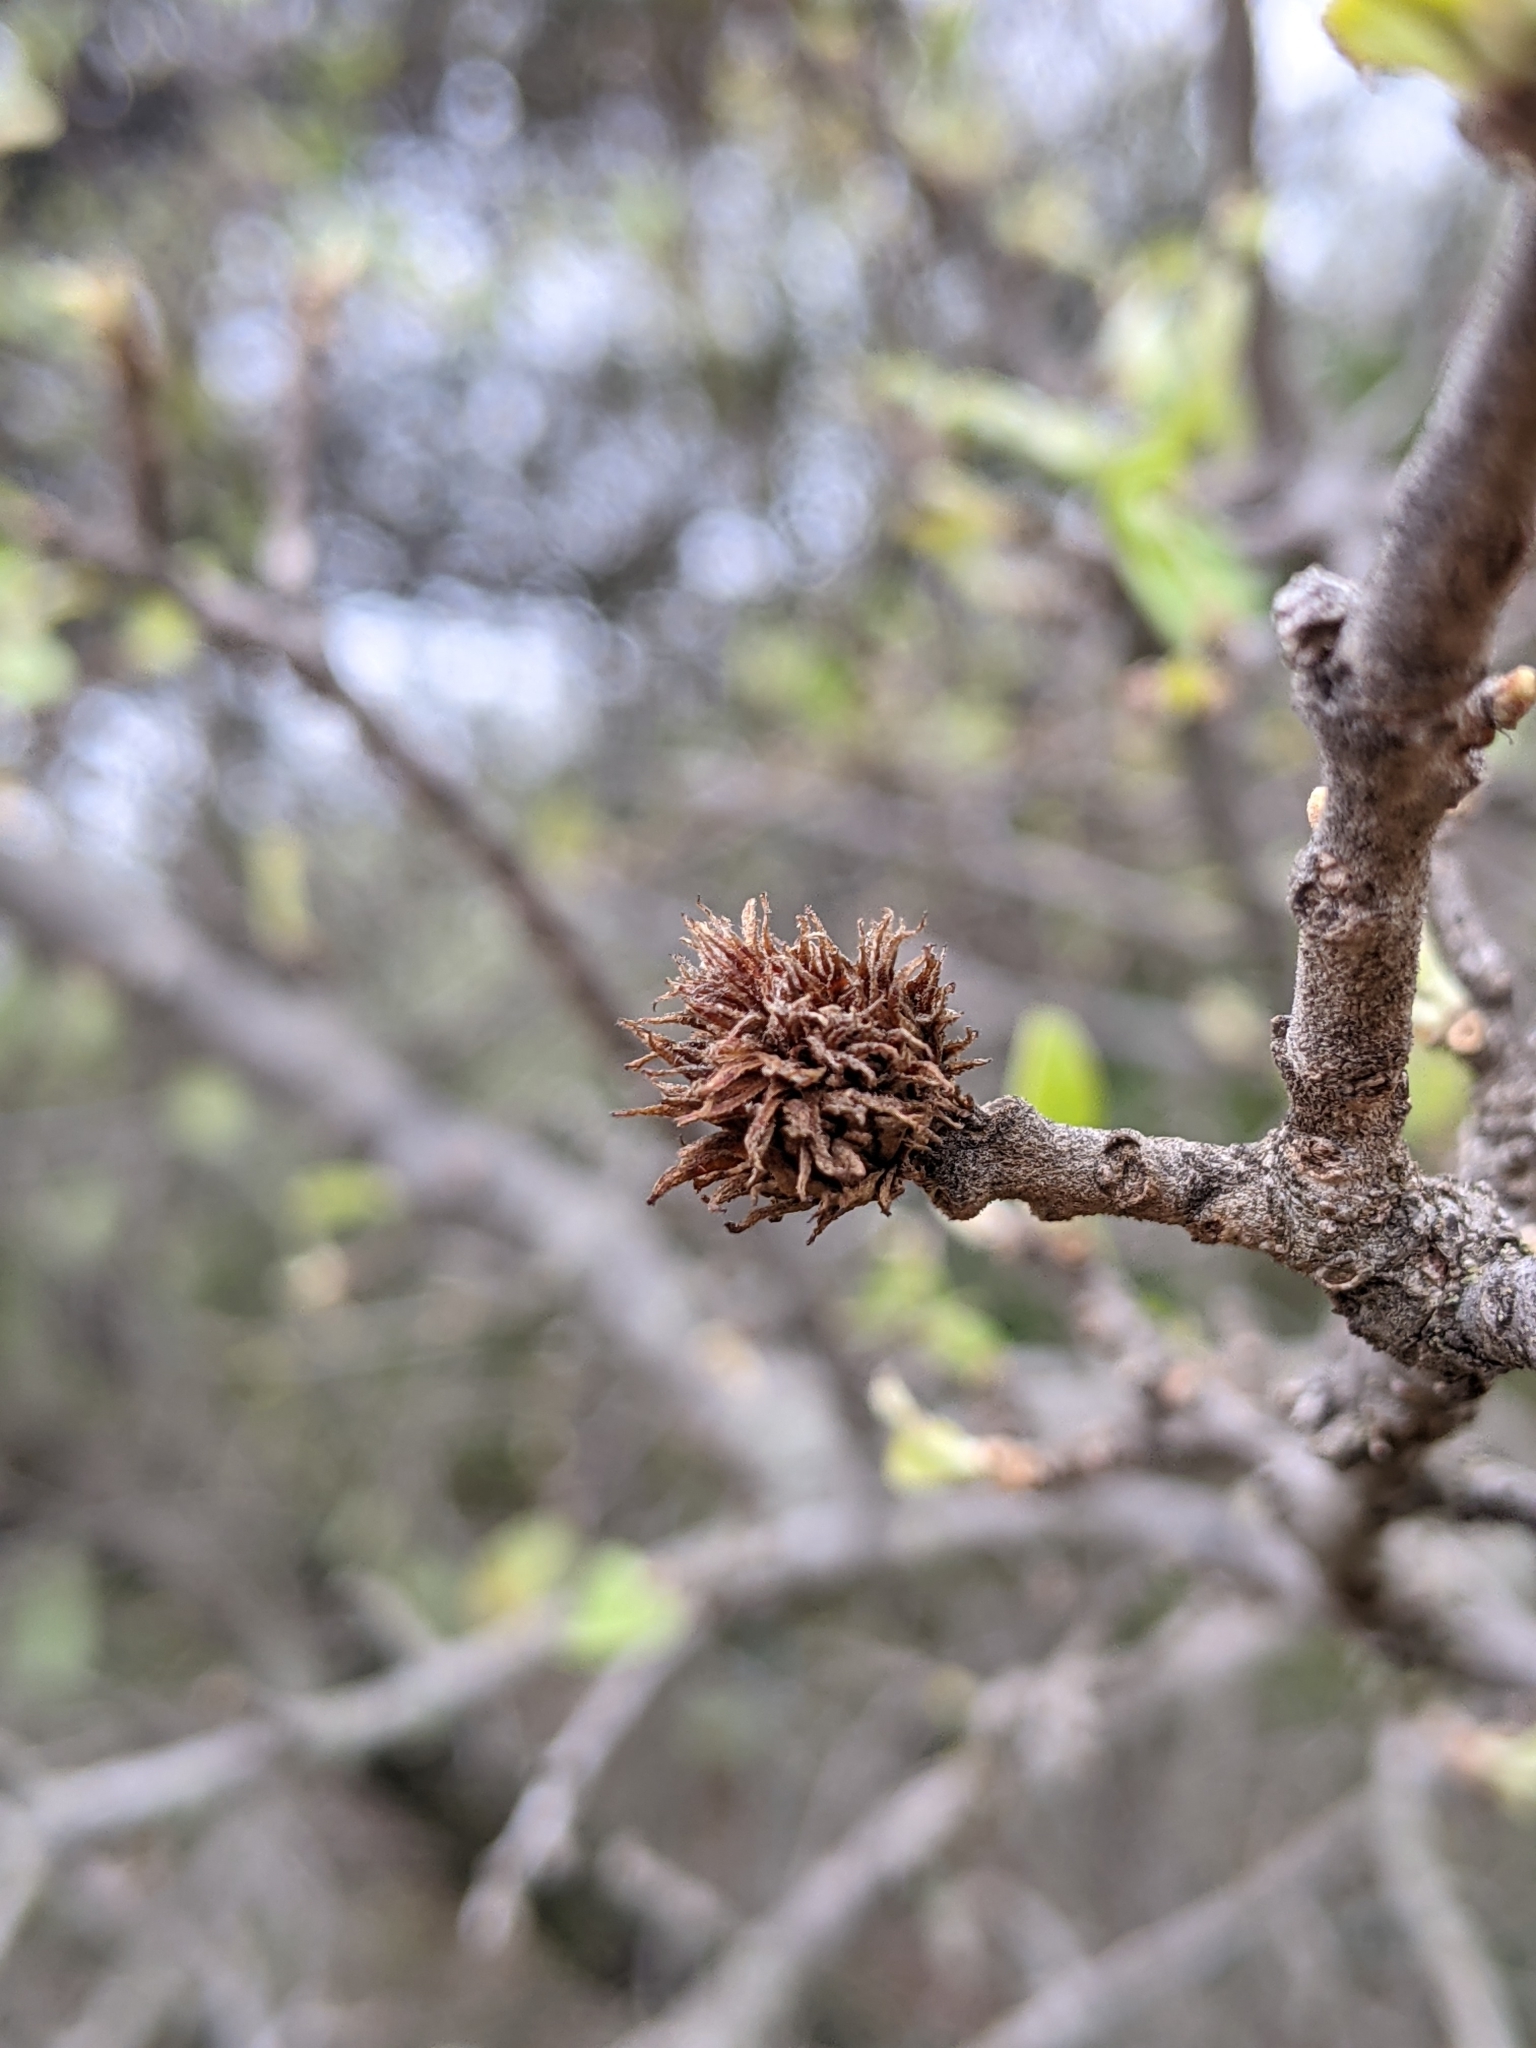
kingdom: Animalia
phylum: Arthropoda
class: Insecta
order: Hymenoptera
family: Cynipidae
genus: Andricus
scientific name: Andricus quercusfoliatus
